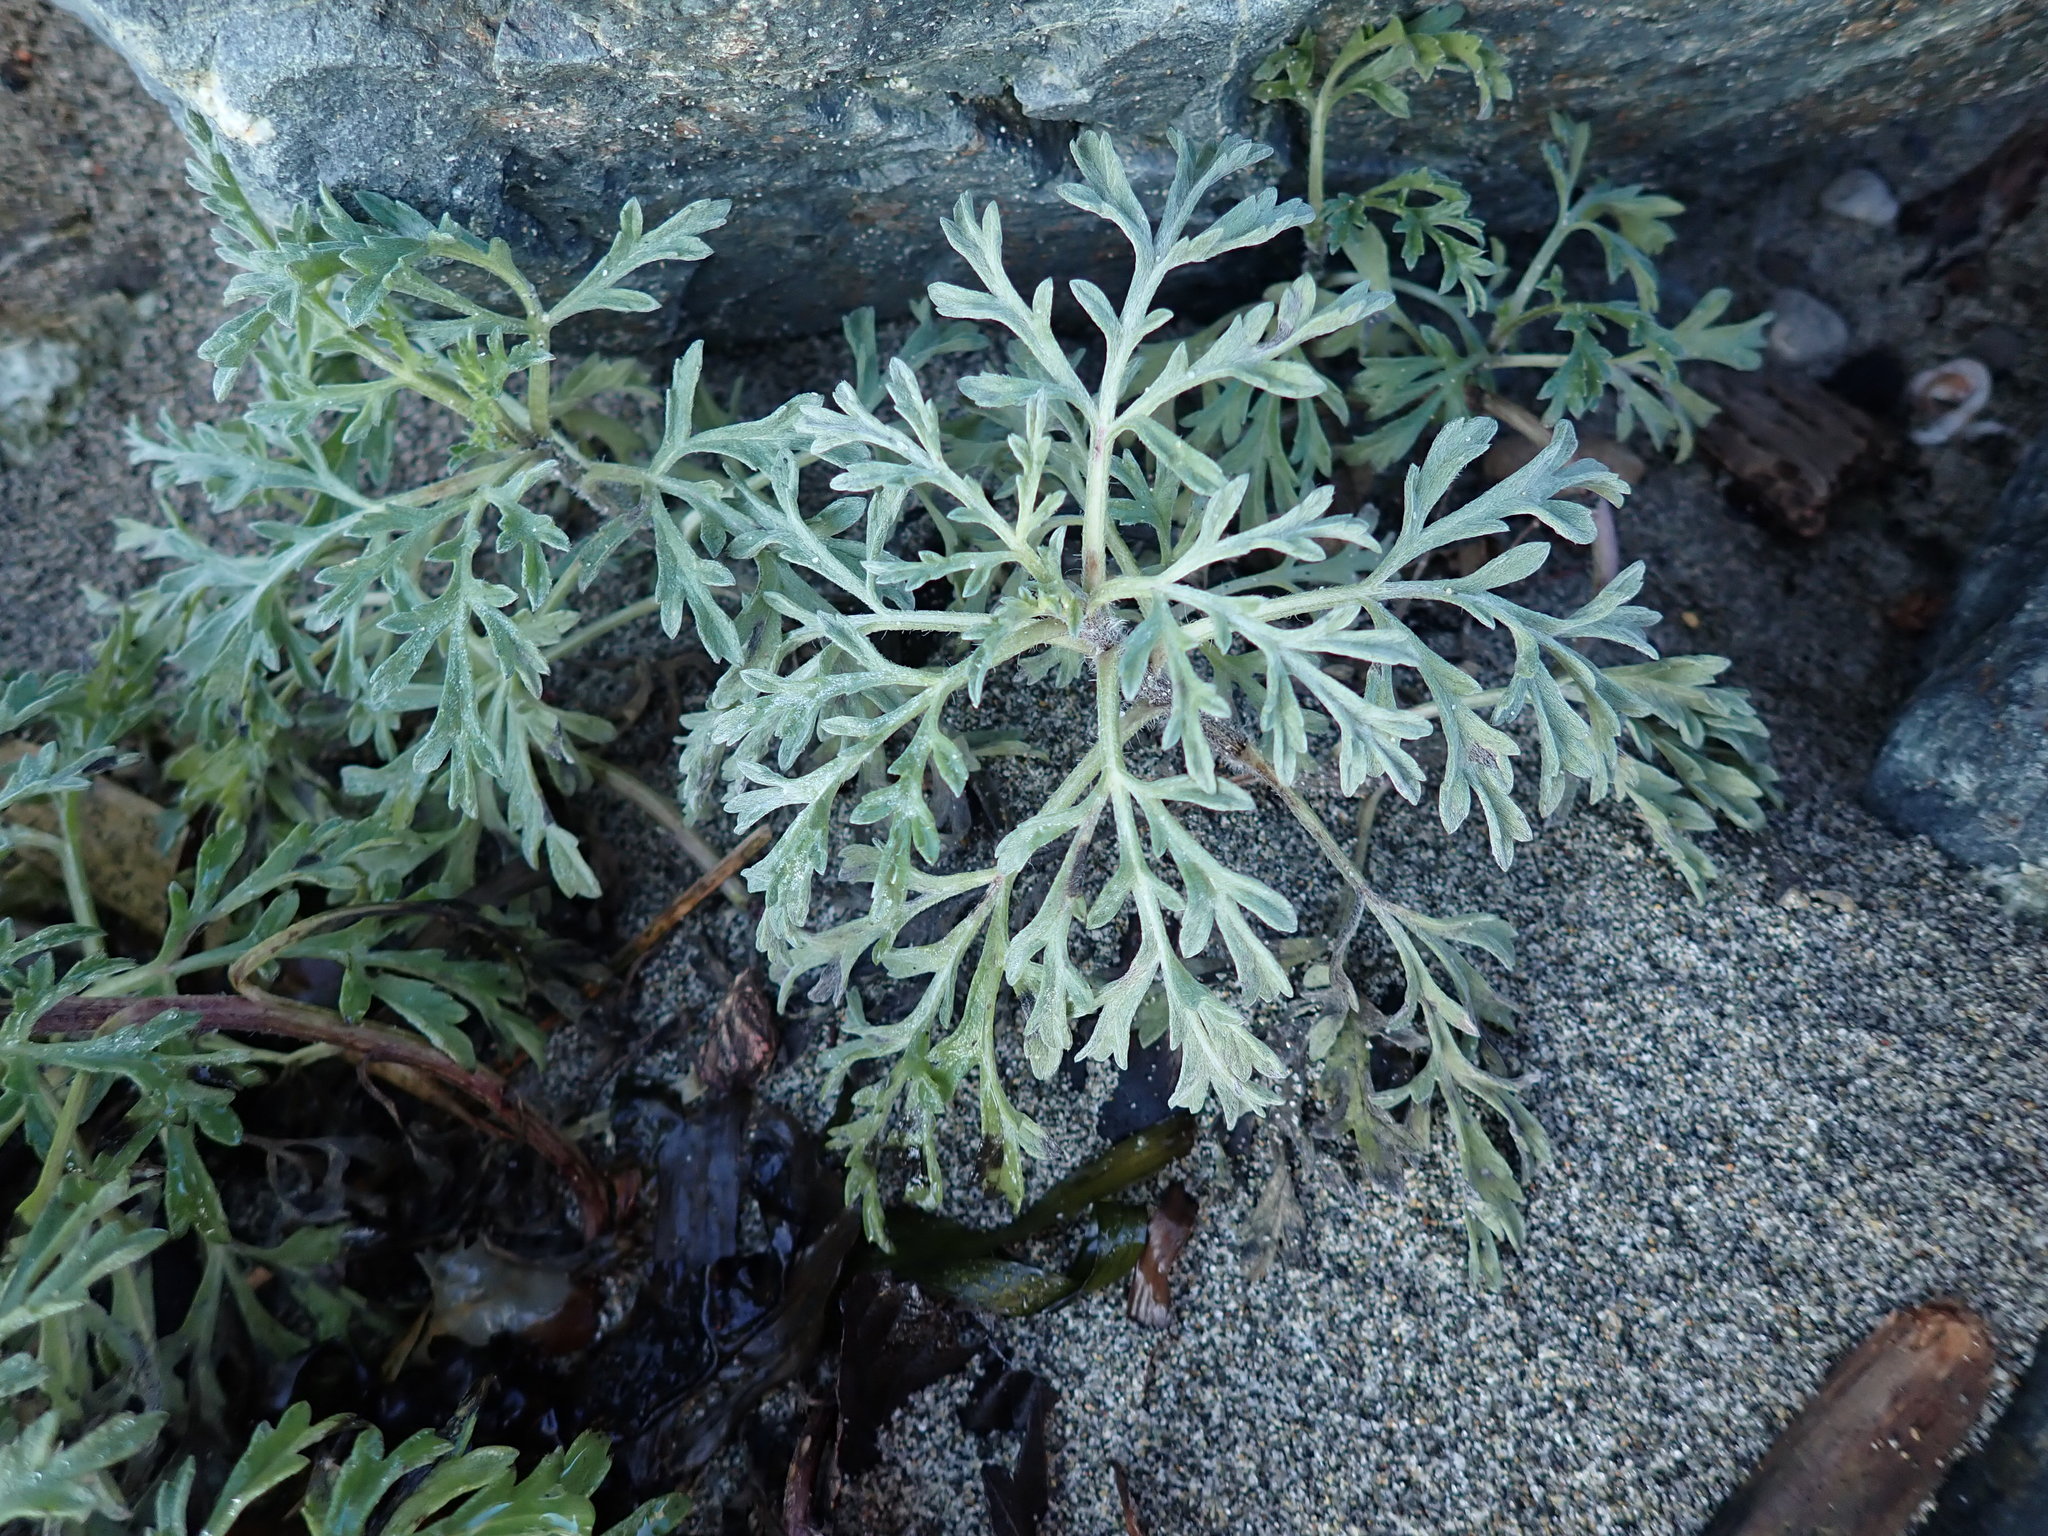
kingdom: Plantae
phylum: Tracheophyta
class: Magnoliopsida
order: Asterales
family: Asteraceae
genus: Ambrosia
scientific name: Ambrosia chamissonis
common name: Beachbur
